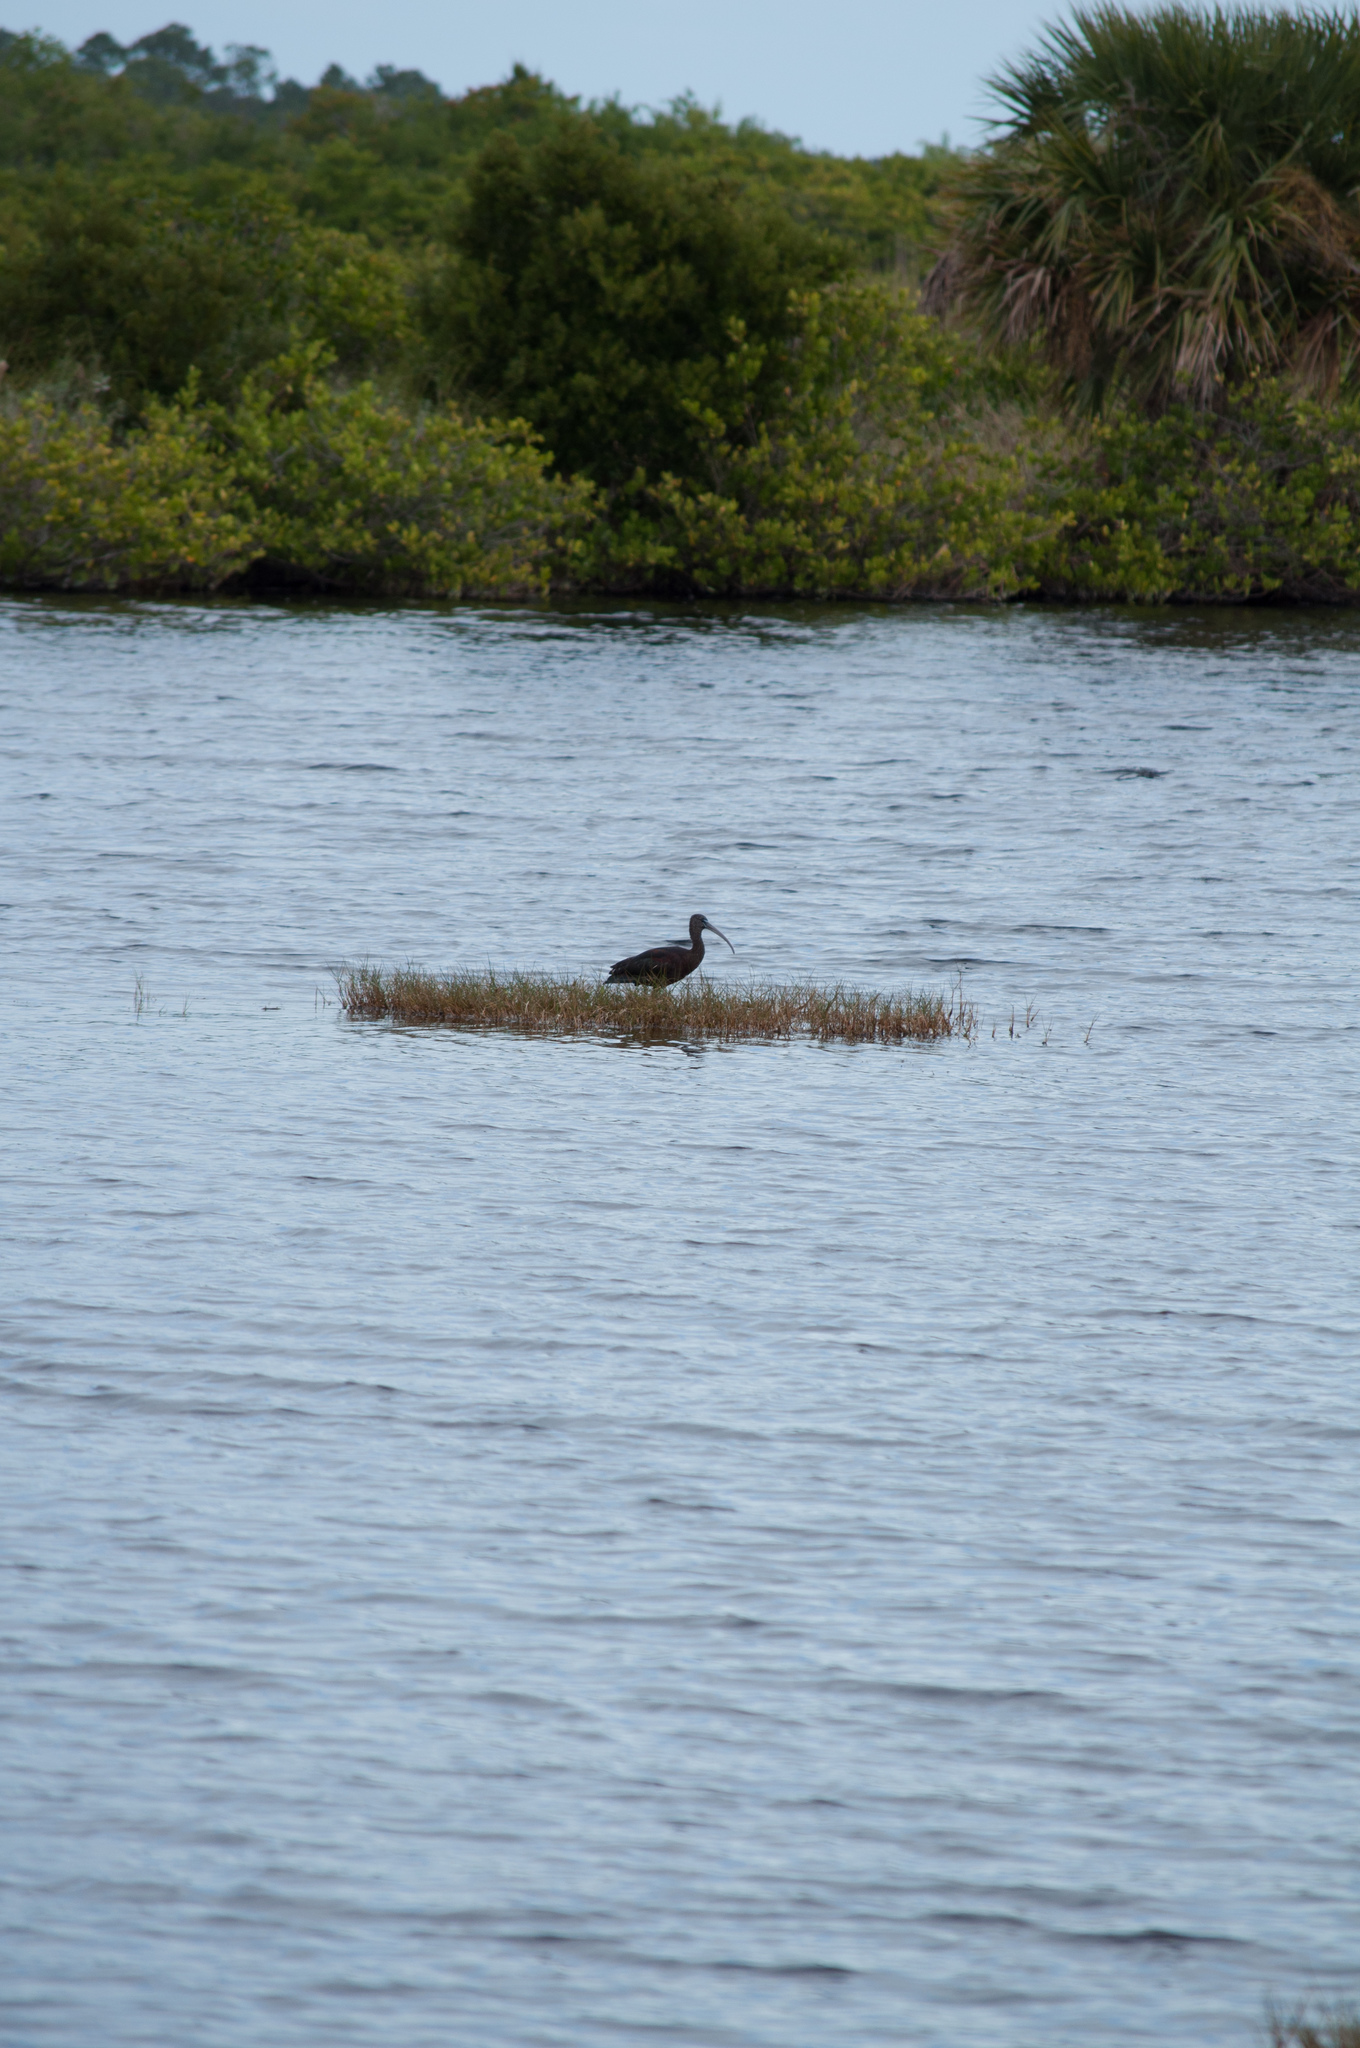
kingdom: Animalia
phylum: Chordata
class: Aves
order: Pelecaniformes
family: Threskiornithidae
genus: Plegadis
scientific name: Plegadis falcinellus
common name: Glossy ibis
